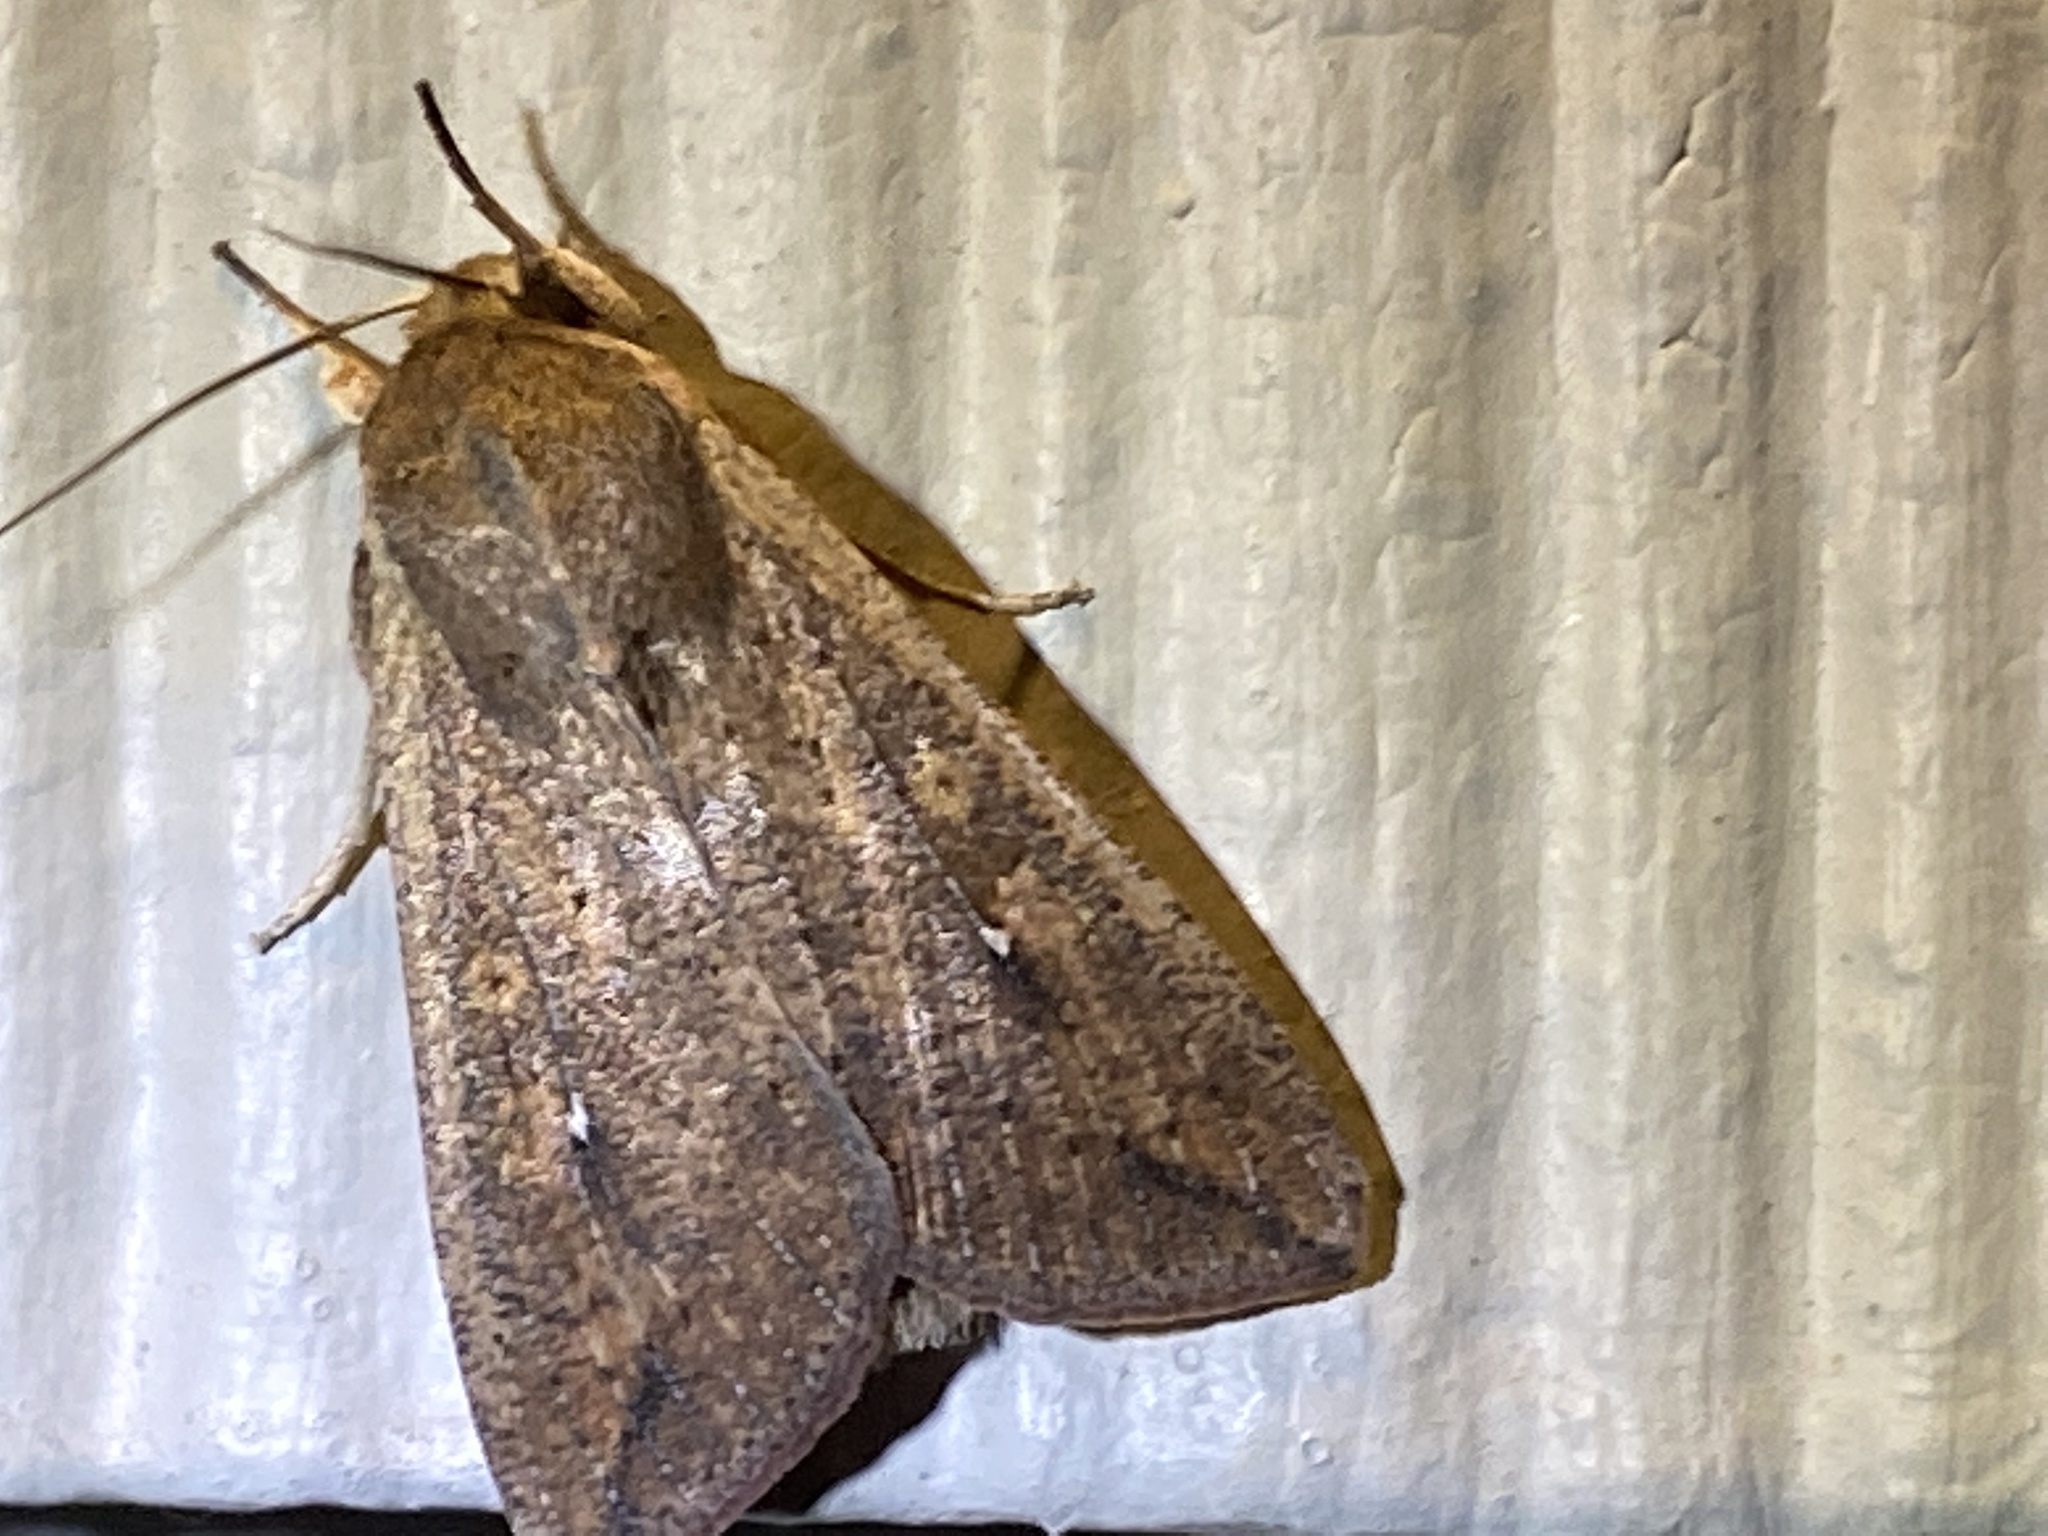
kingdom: Animalia
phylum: Arthropoda
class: Insecta
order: Lepidoptera
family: Noctuidae
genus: Mythimna
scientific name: Mythimna unipuncta
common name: White-speck
